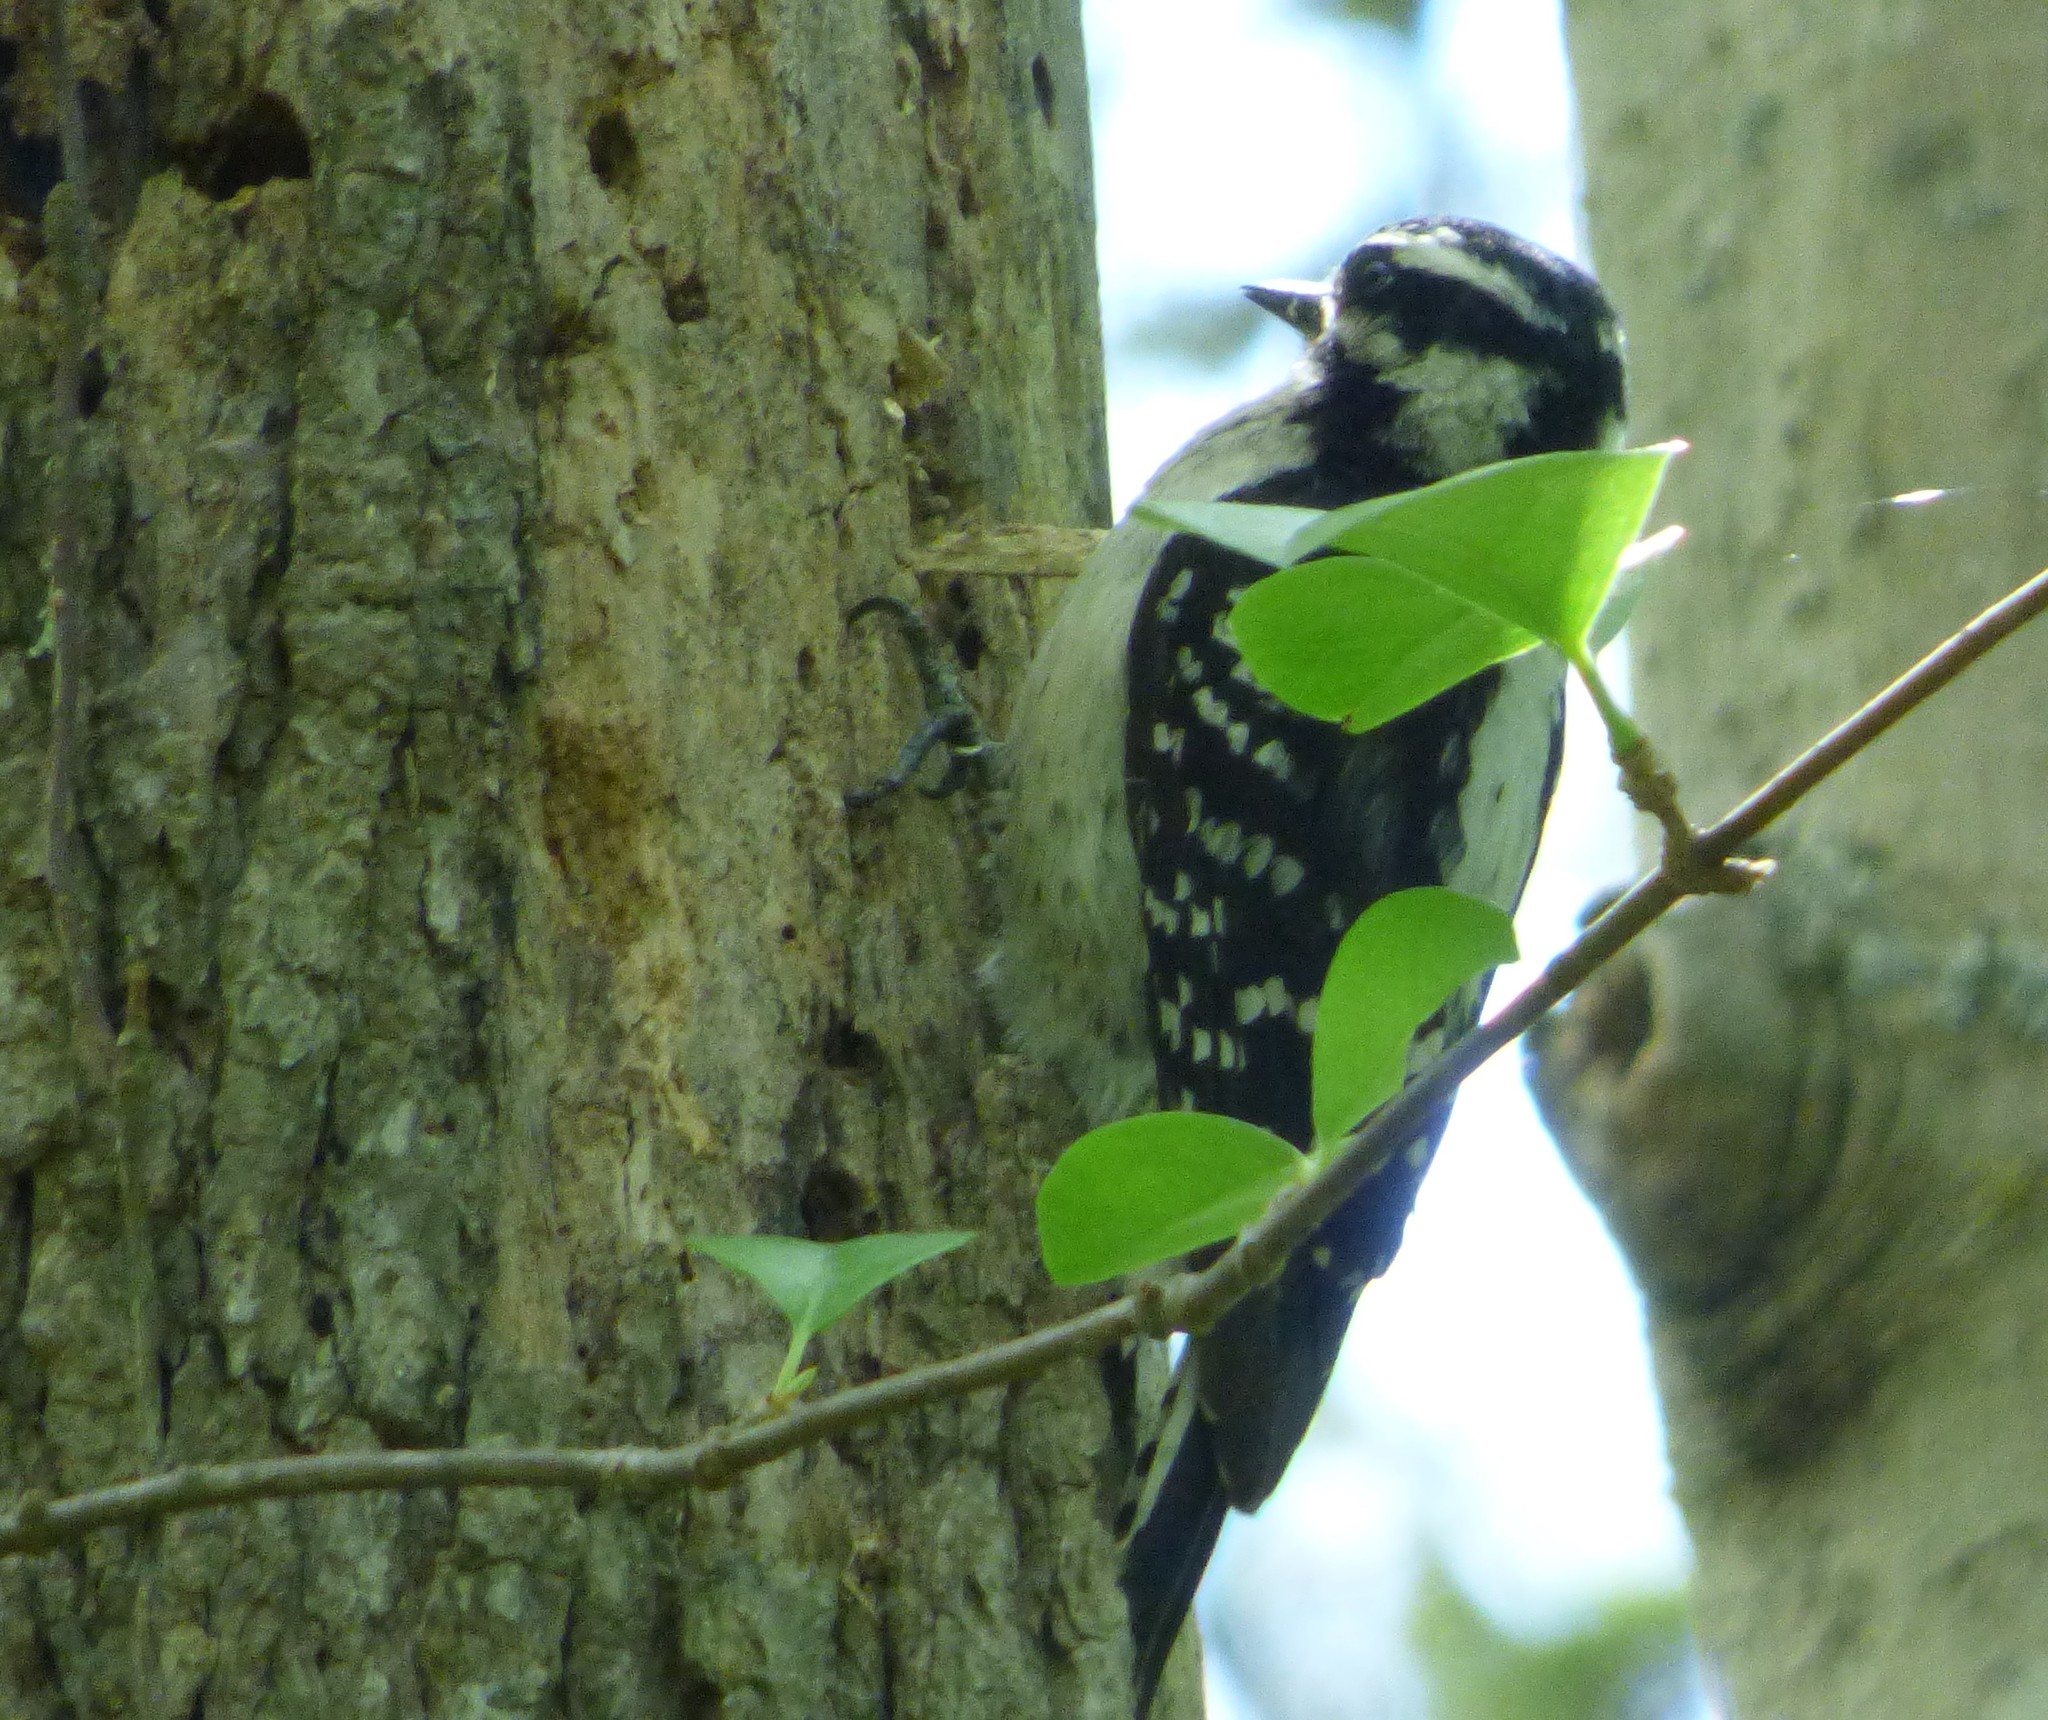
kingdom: Animalia
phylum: Chordata
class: Aves
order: Piciformes
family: Picidae
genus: Dryobates
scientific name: Dryobates pubescens
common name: Downy woodpecker
